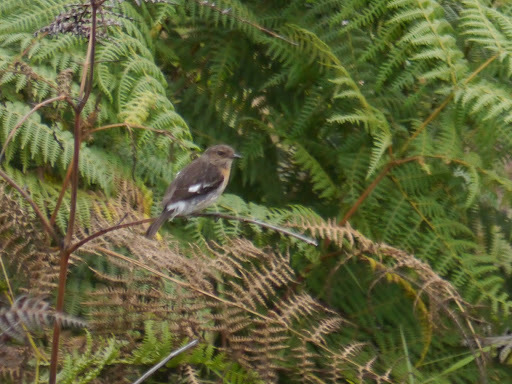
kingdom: Animalia
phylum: Chordata
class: Aves
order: Passeriformes
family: Muscicapidae
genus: Saxicola
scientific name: Saxicola torquatus
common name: African stonechat
